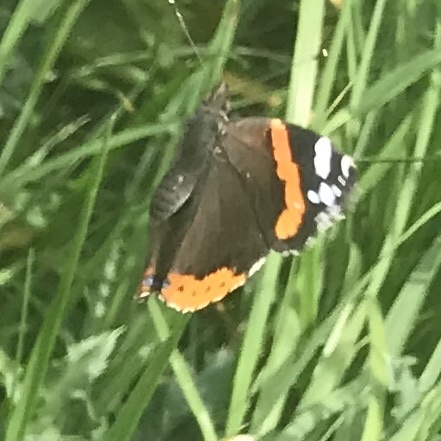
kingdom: Animalia
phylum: Arthropoda
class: Insecta
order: Lepidoptera
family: Nymphalidae
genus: Vanessa
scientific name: Vanessa atalanta
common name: Red admiral
